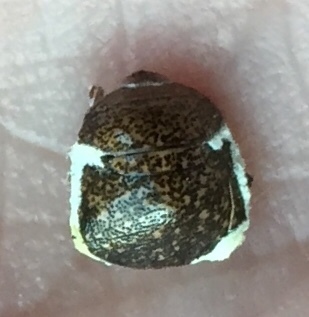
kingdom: Fungi
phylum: Ascomycota
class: Sordariomycetes
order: Hypocreales
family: Cordycipitaceae
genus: Beauveria
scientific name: Beauveria bassiana
